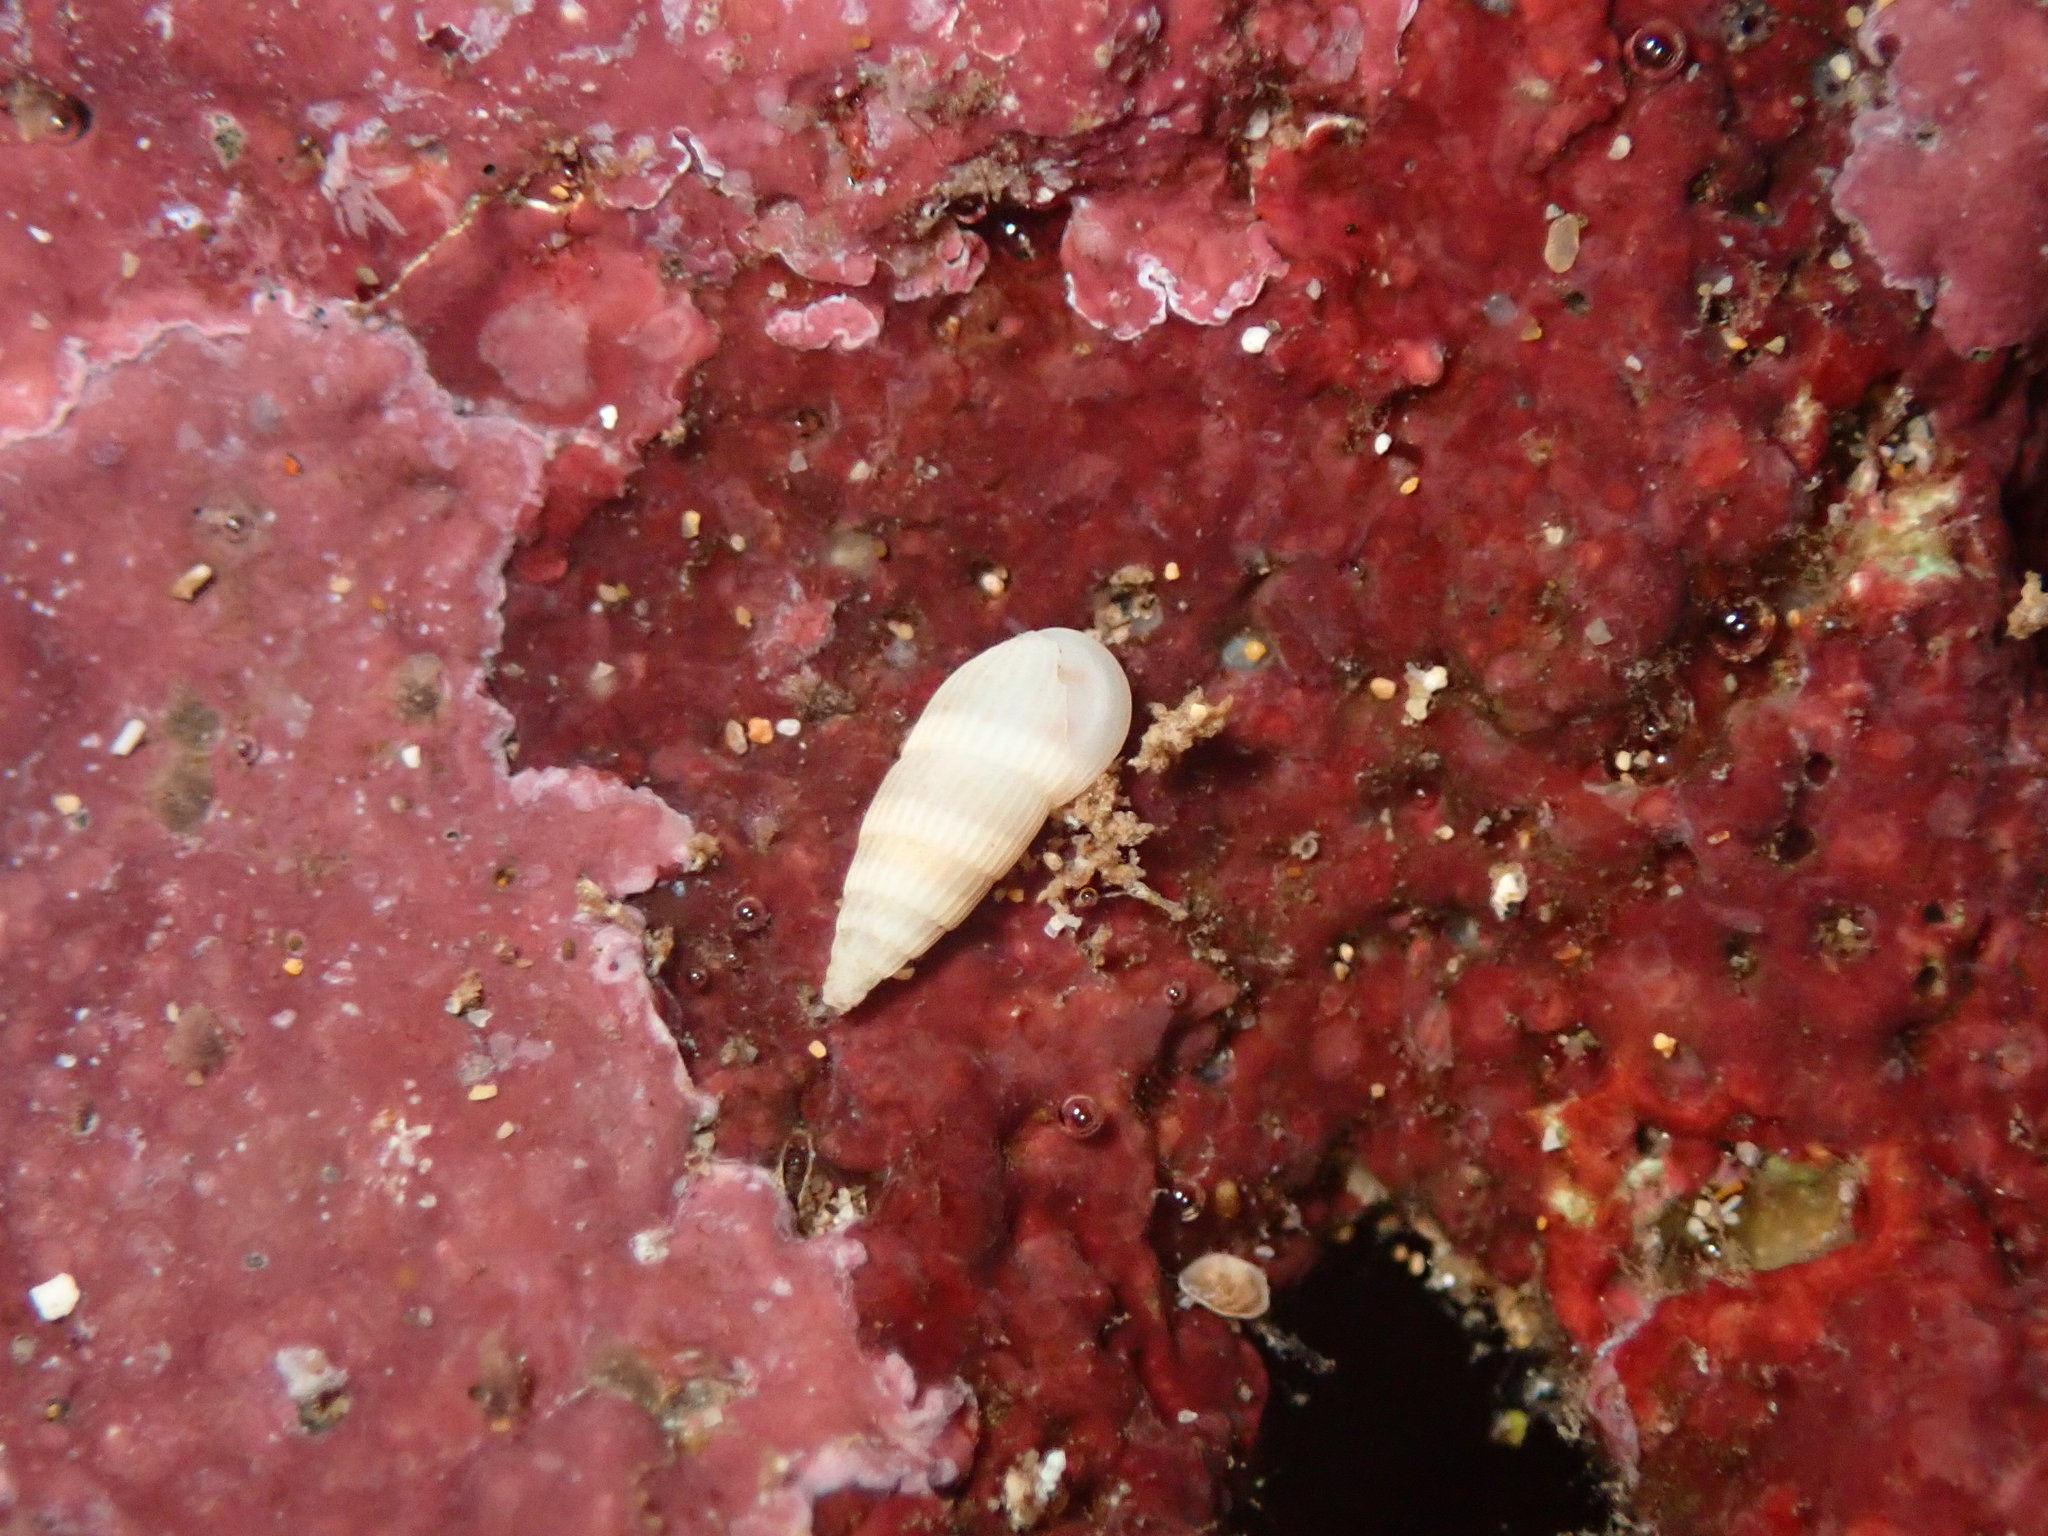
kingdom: Animalia
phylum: Mollusca
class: Gastropoda
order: Littorinimorpha
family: Rissoinidae
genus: Rissoina
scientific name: Rissoina ambigua
